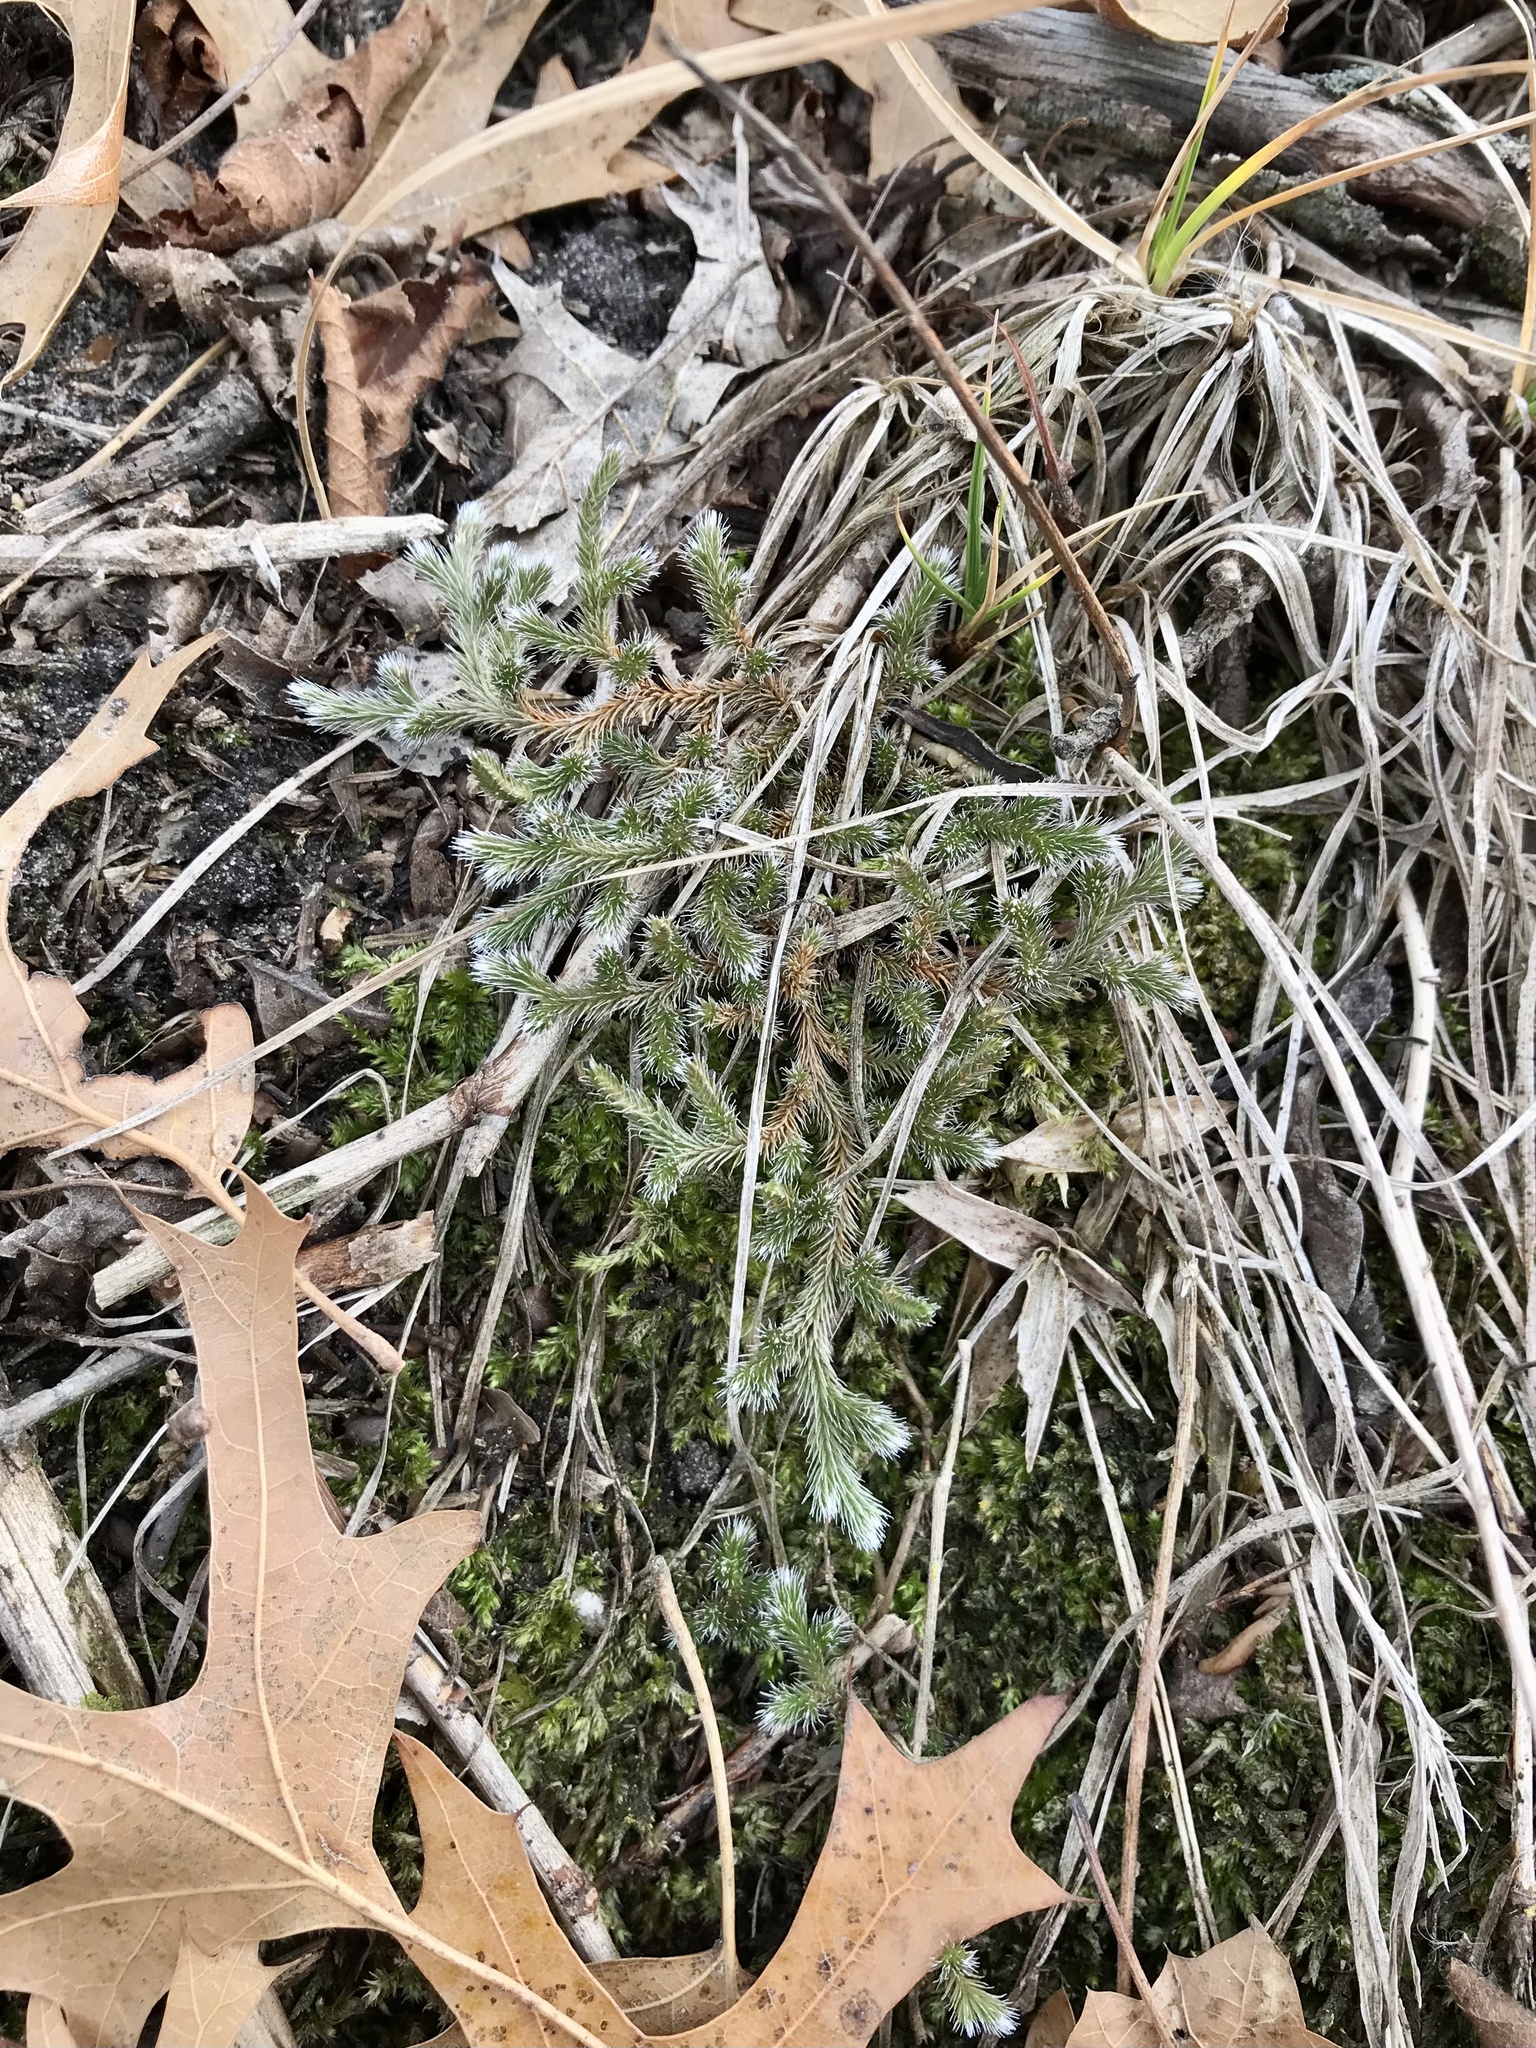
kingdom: Plantae
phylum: Tracheophyta
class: Lycopodiopsida
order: Selaginellales
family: Selaginellaceae
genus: Selaginella
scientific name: Selaginella rupestris
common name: Dwarf spikemoss
